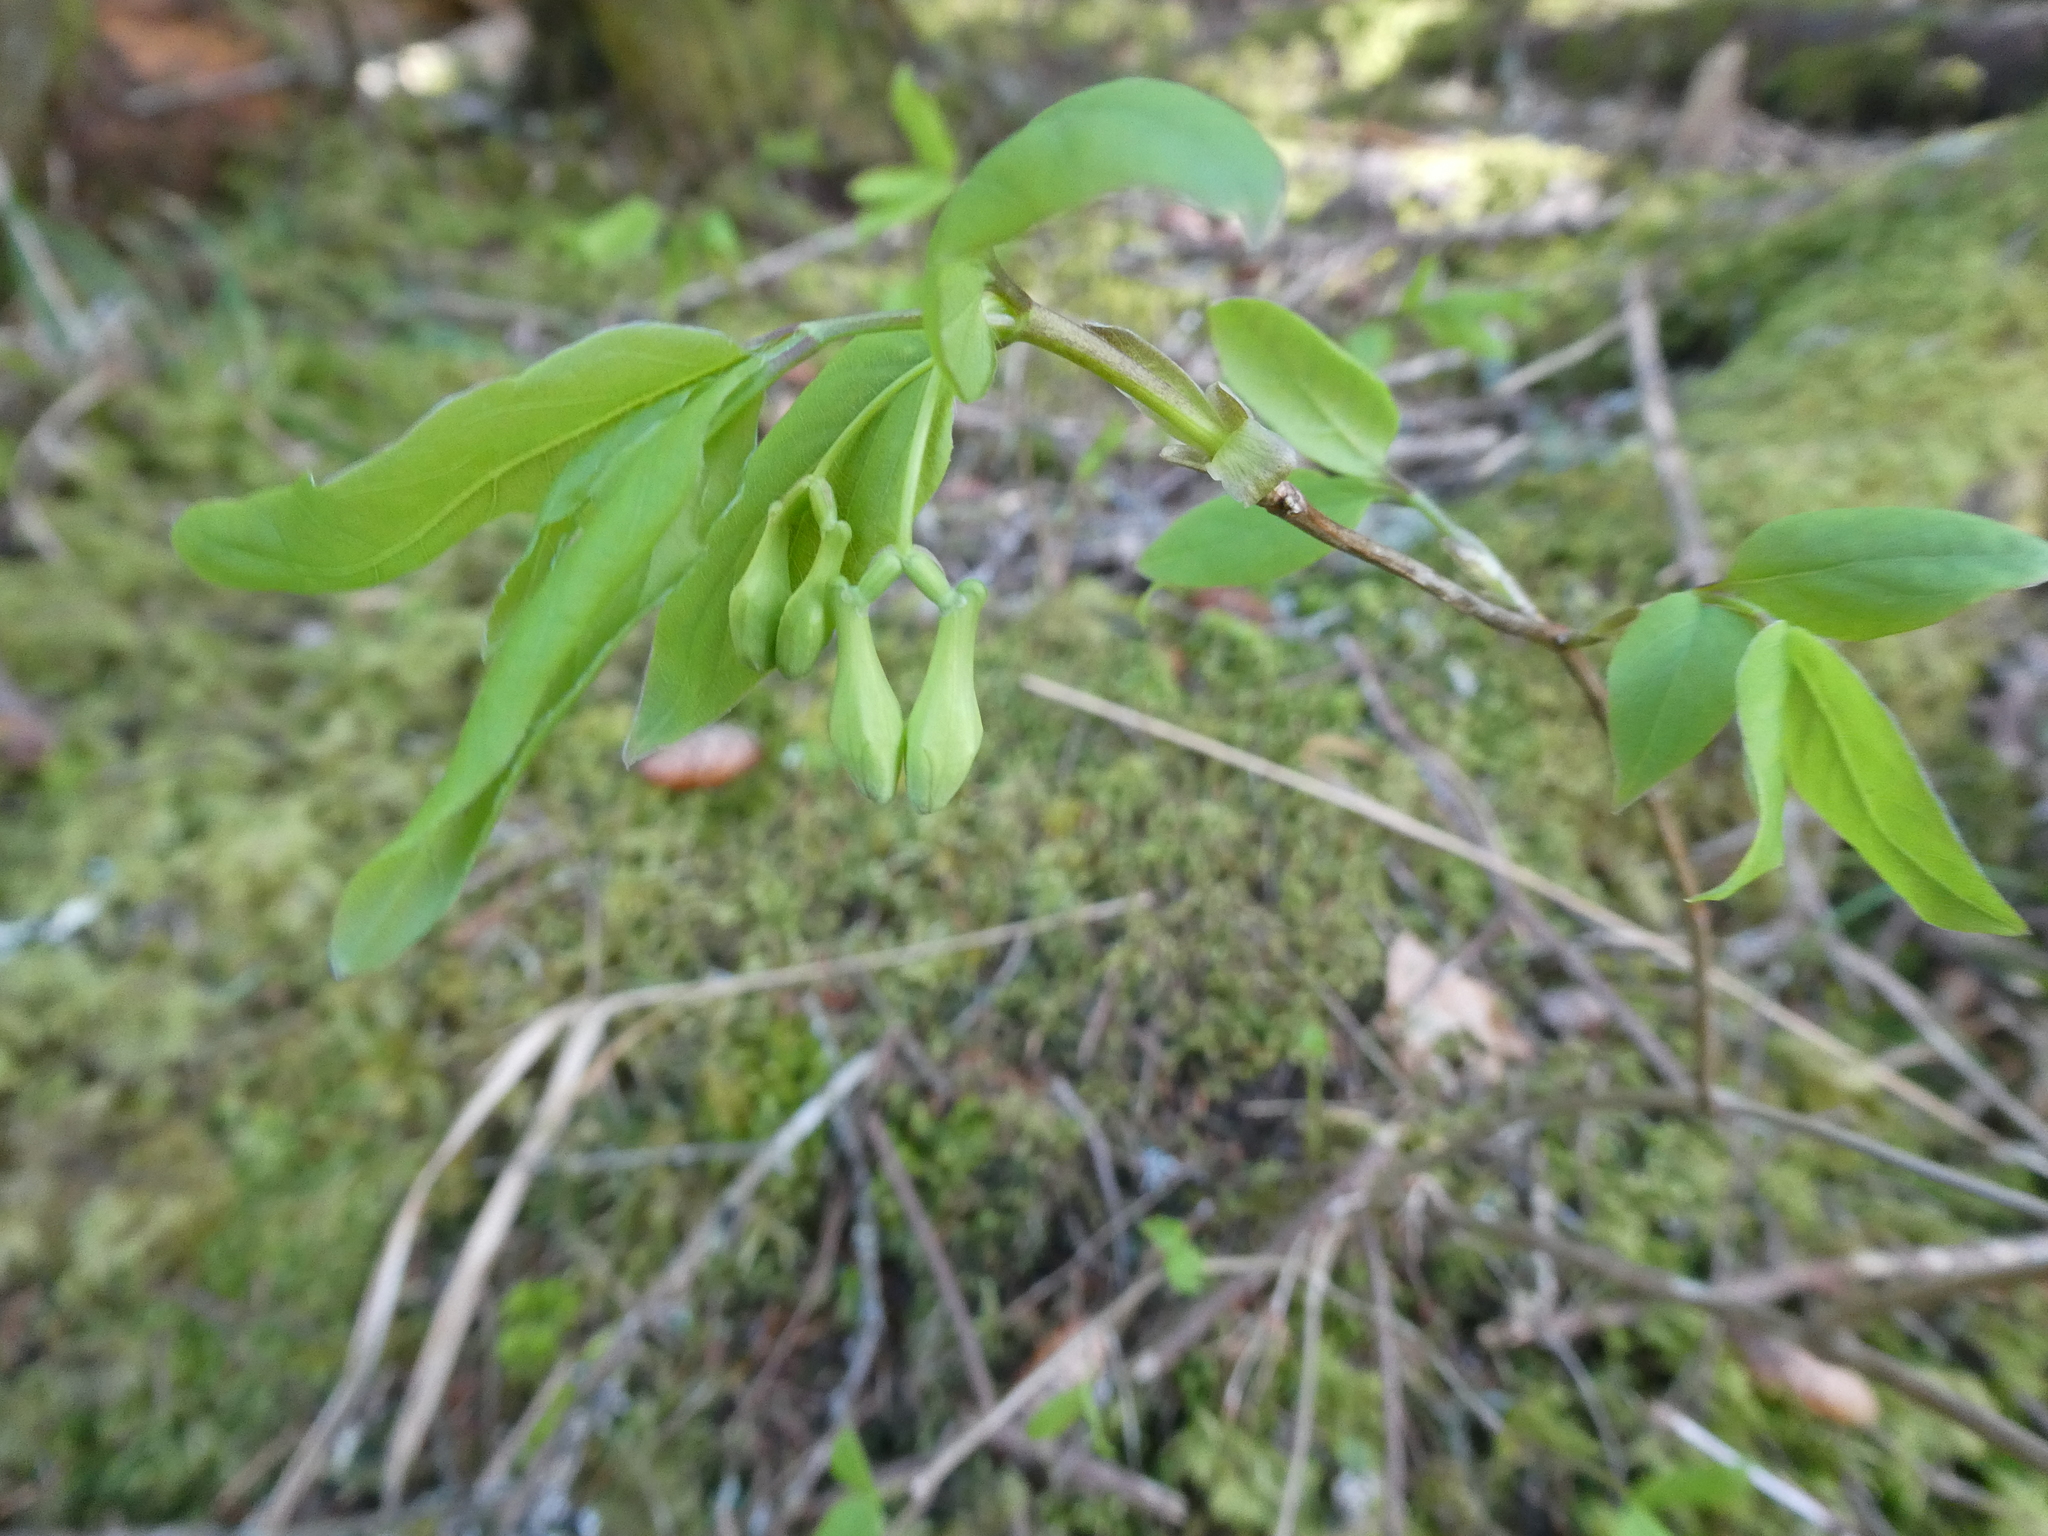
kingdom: Plantae
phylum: Tracheophyta
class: Magnoliopsida
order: Dipsacales
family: Caprifoliaceae
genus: Lonicera
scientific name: Lonicera canadensis
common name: American fly-honeysuckle
